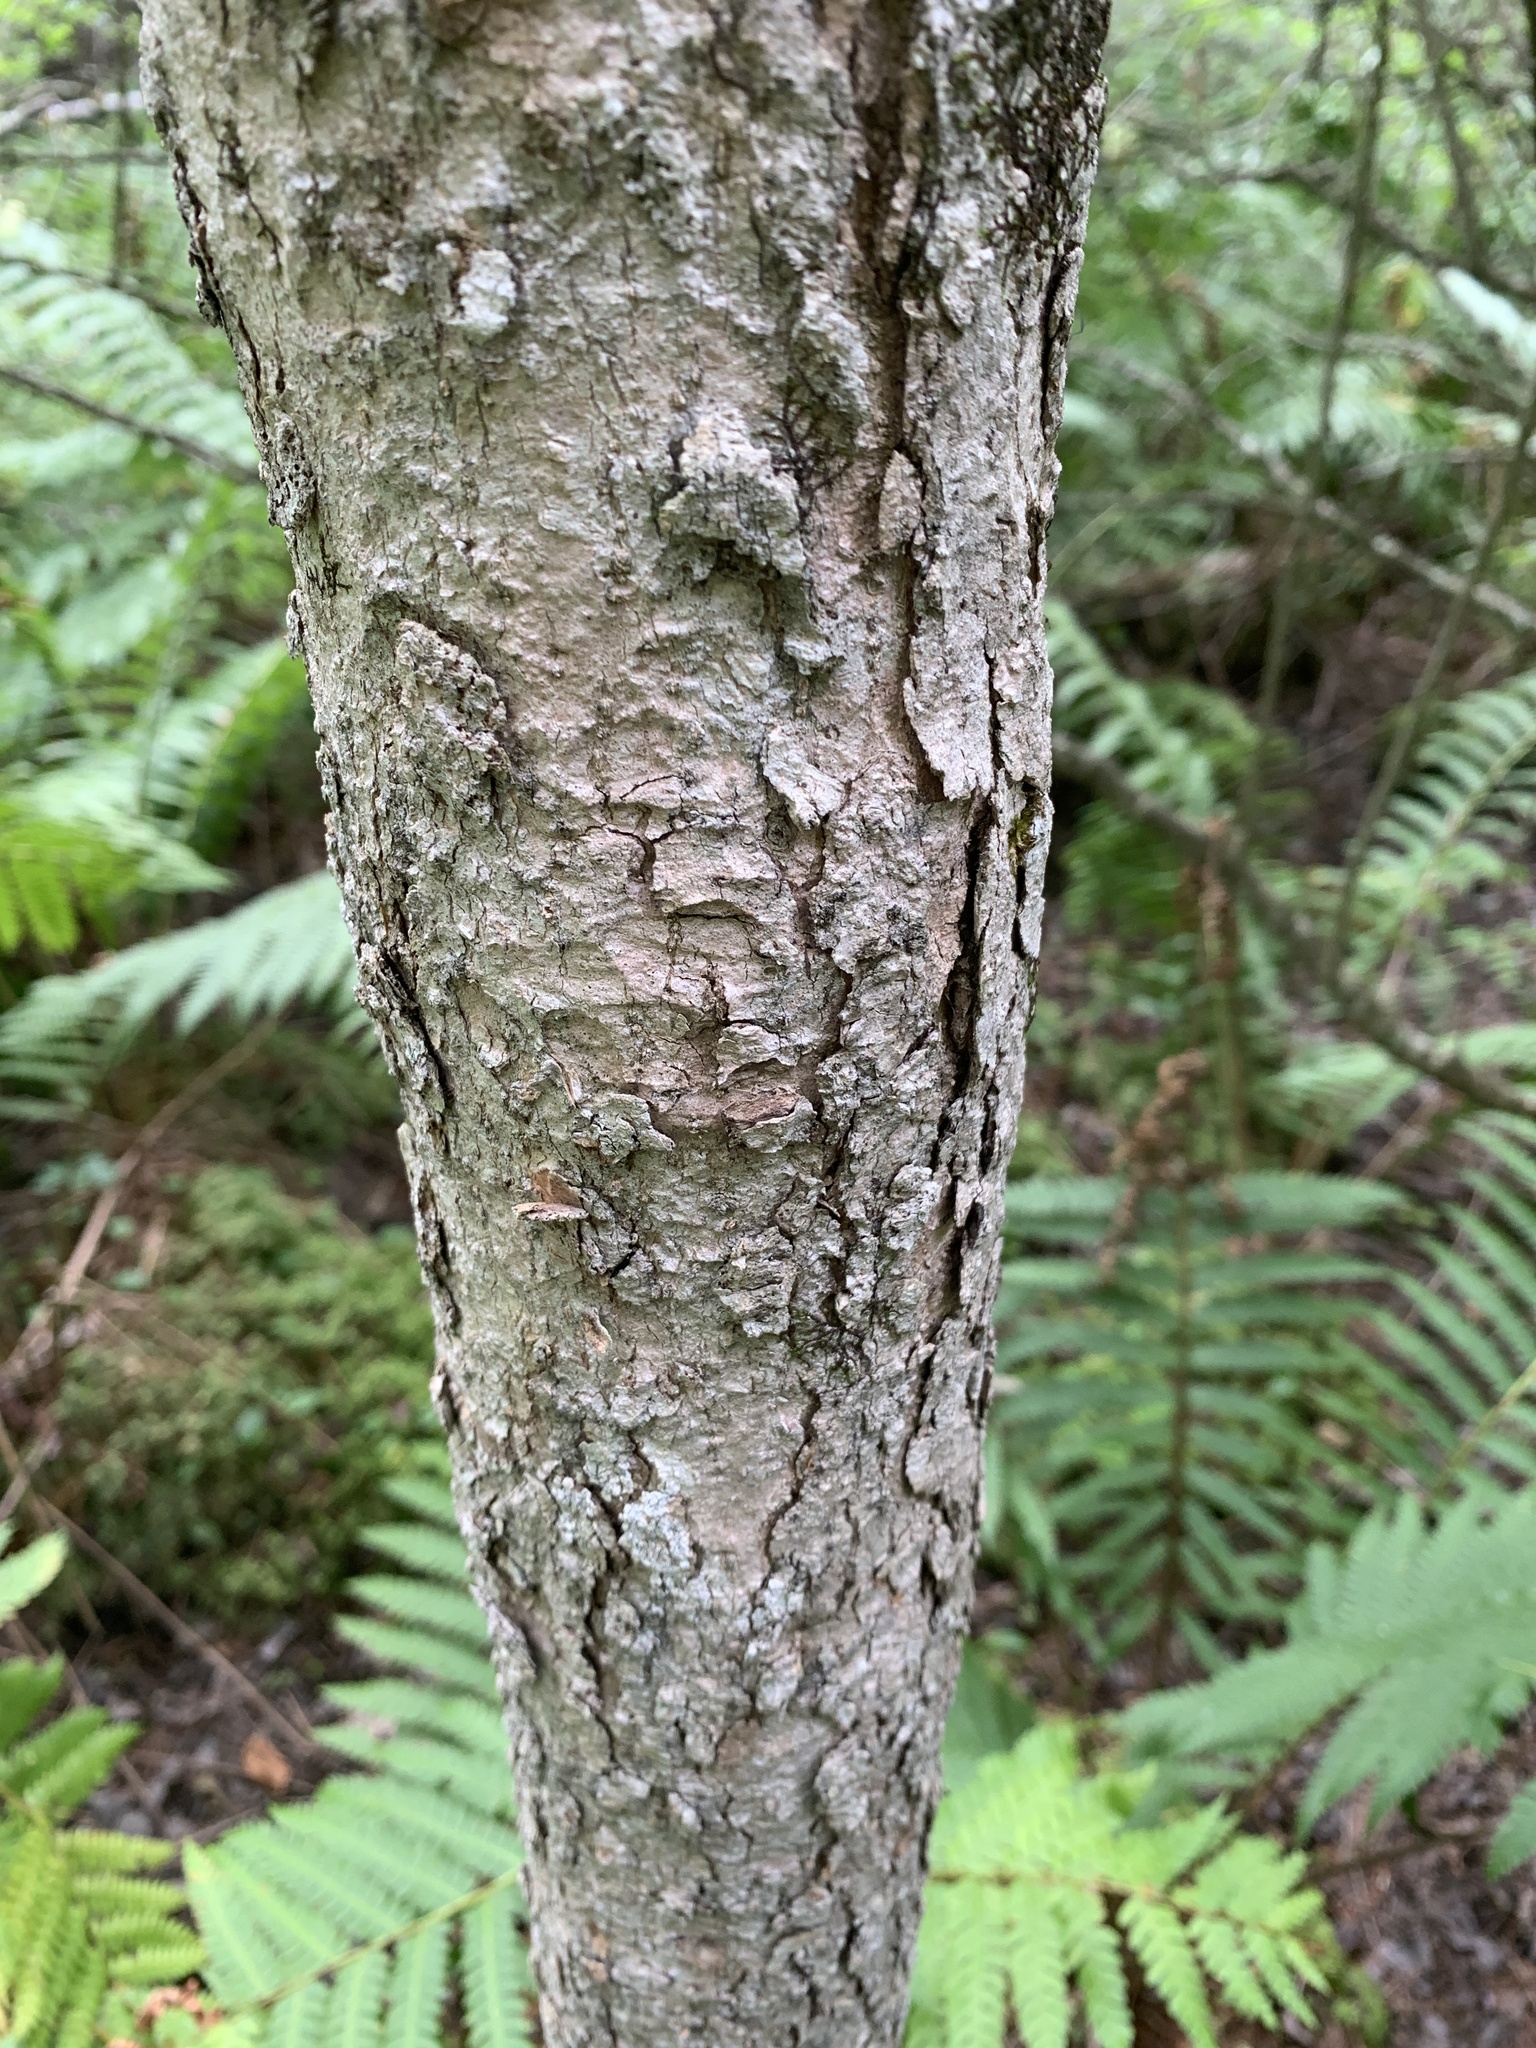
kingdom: Plantae
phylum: Tracheophyta
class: Magnoliopsida
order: Lamiales
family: Oleaceae
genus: Fraxinus
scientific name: Fraxinus nigra
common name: Black ash
